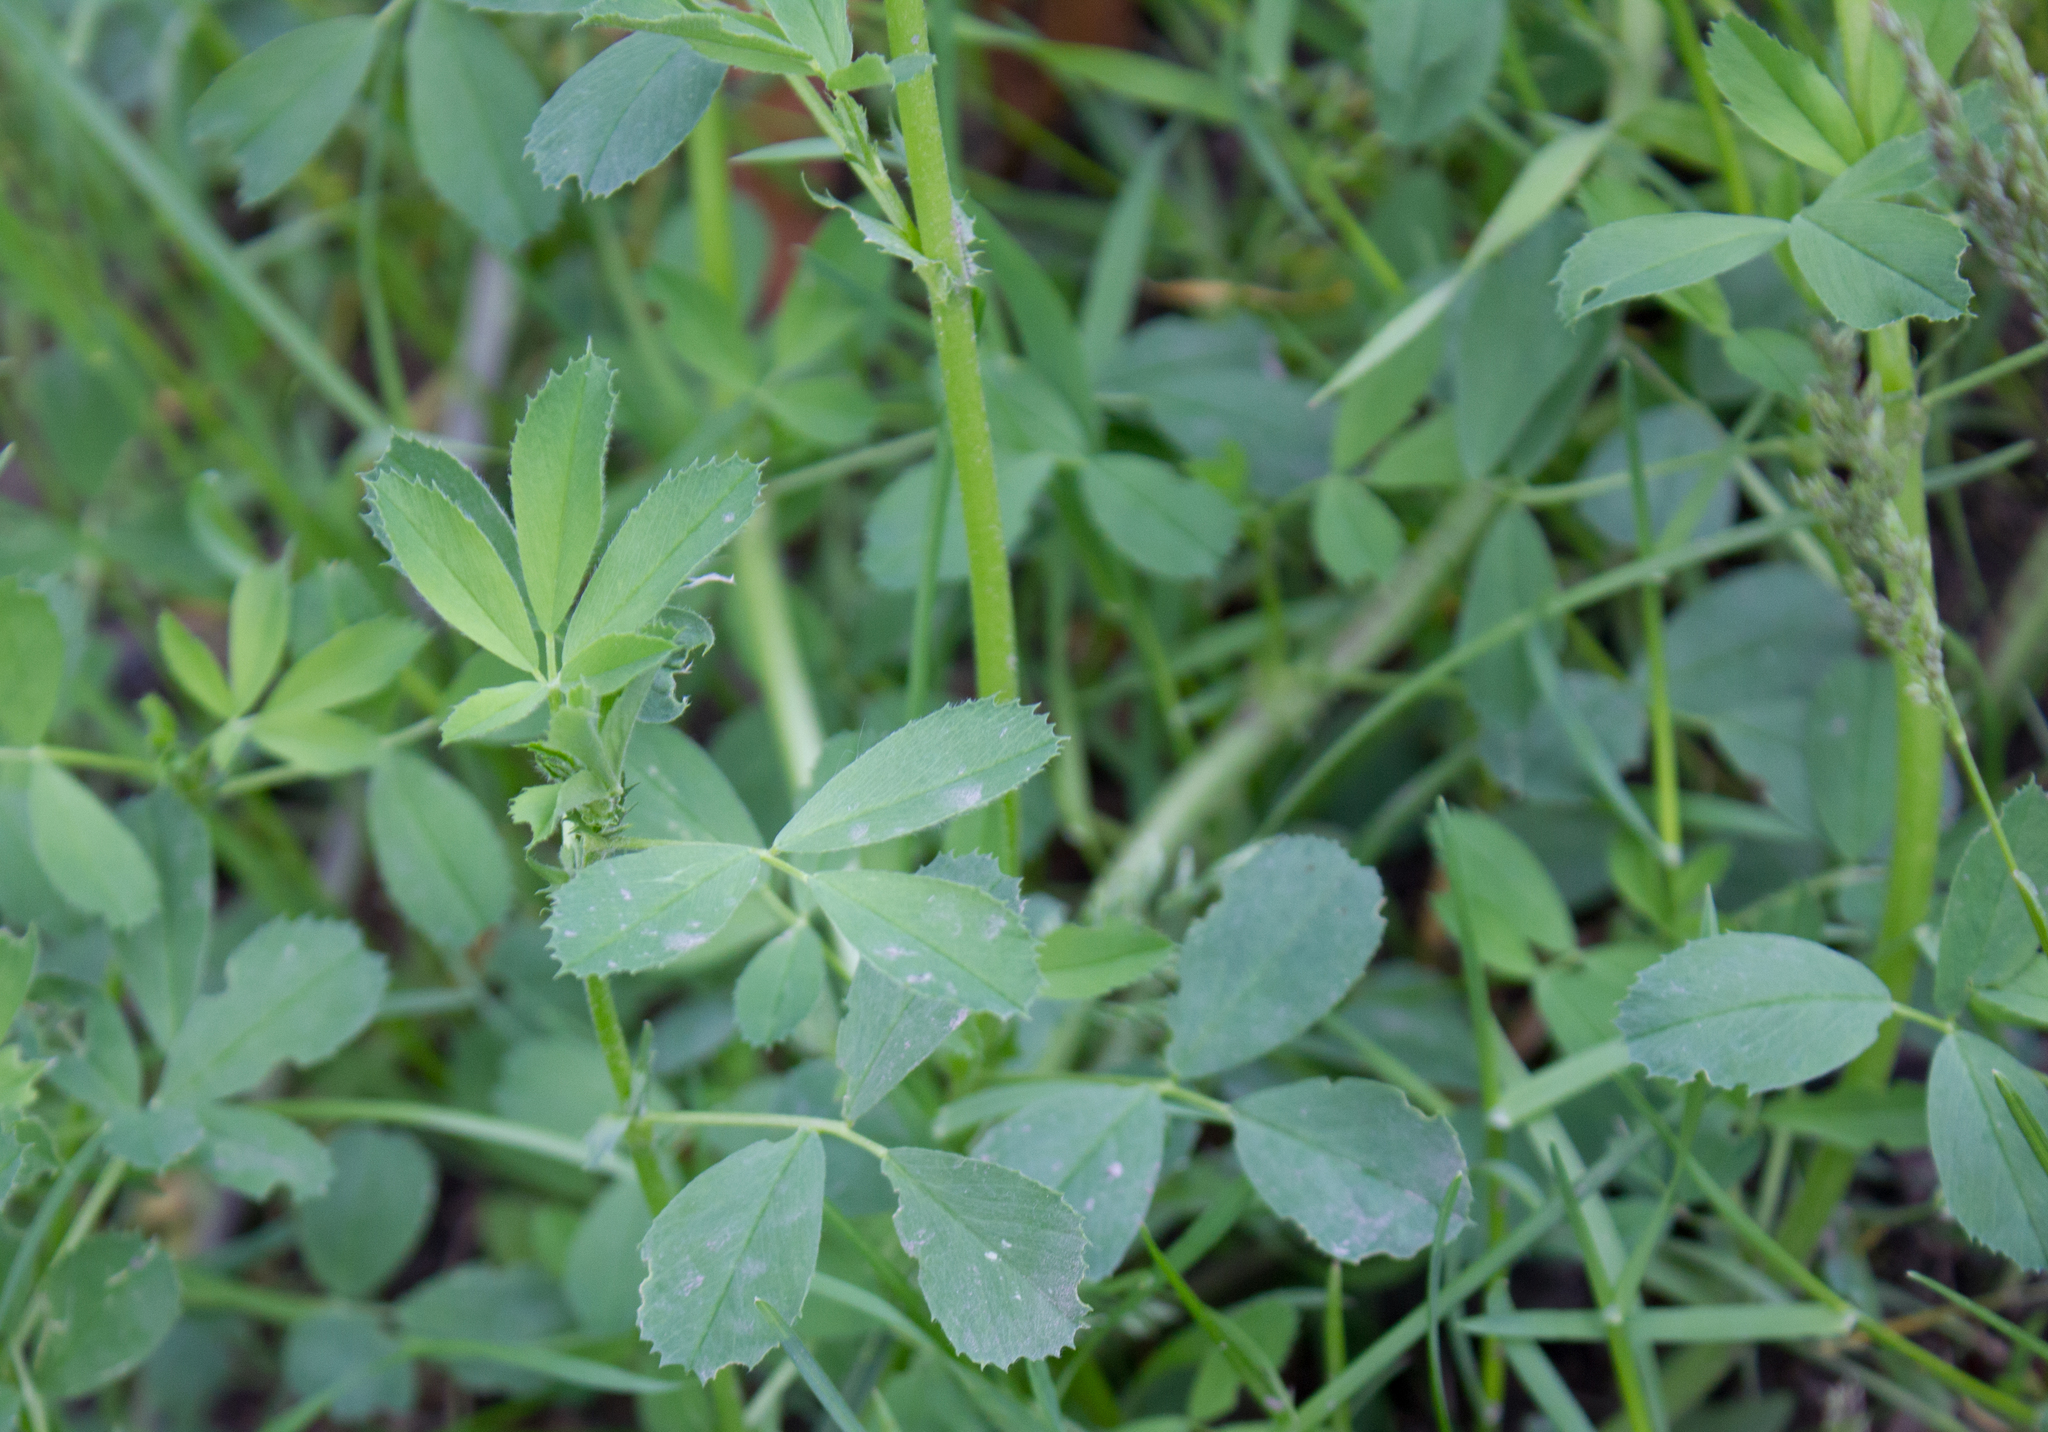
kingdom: Plantae
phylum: Tracheophyta
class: Magnoliopsida
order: Fabales
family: Fabaceae
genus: Melilotus
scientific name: Melilotus
